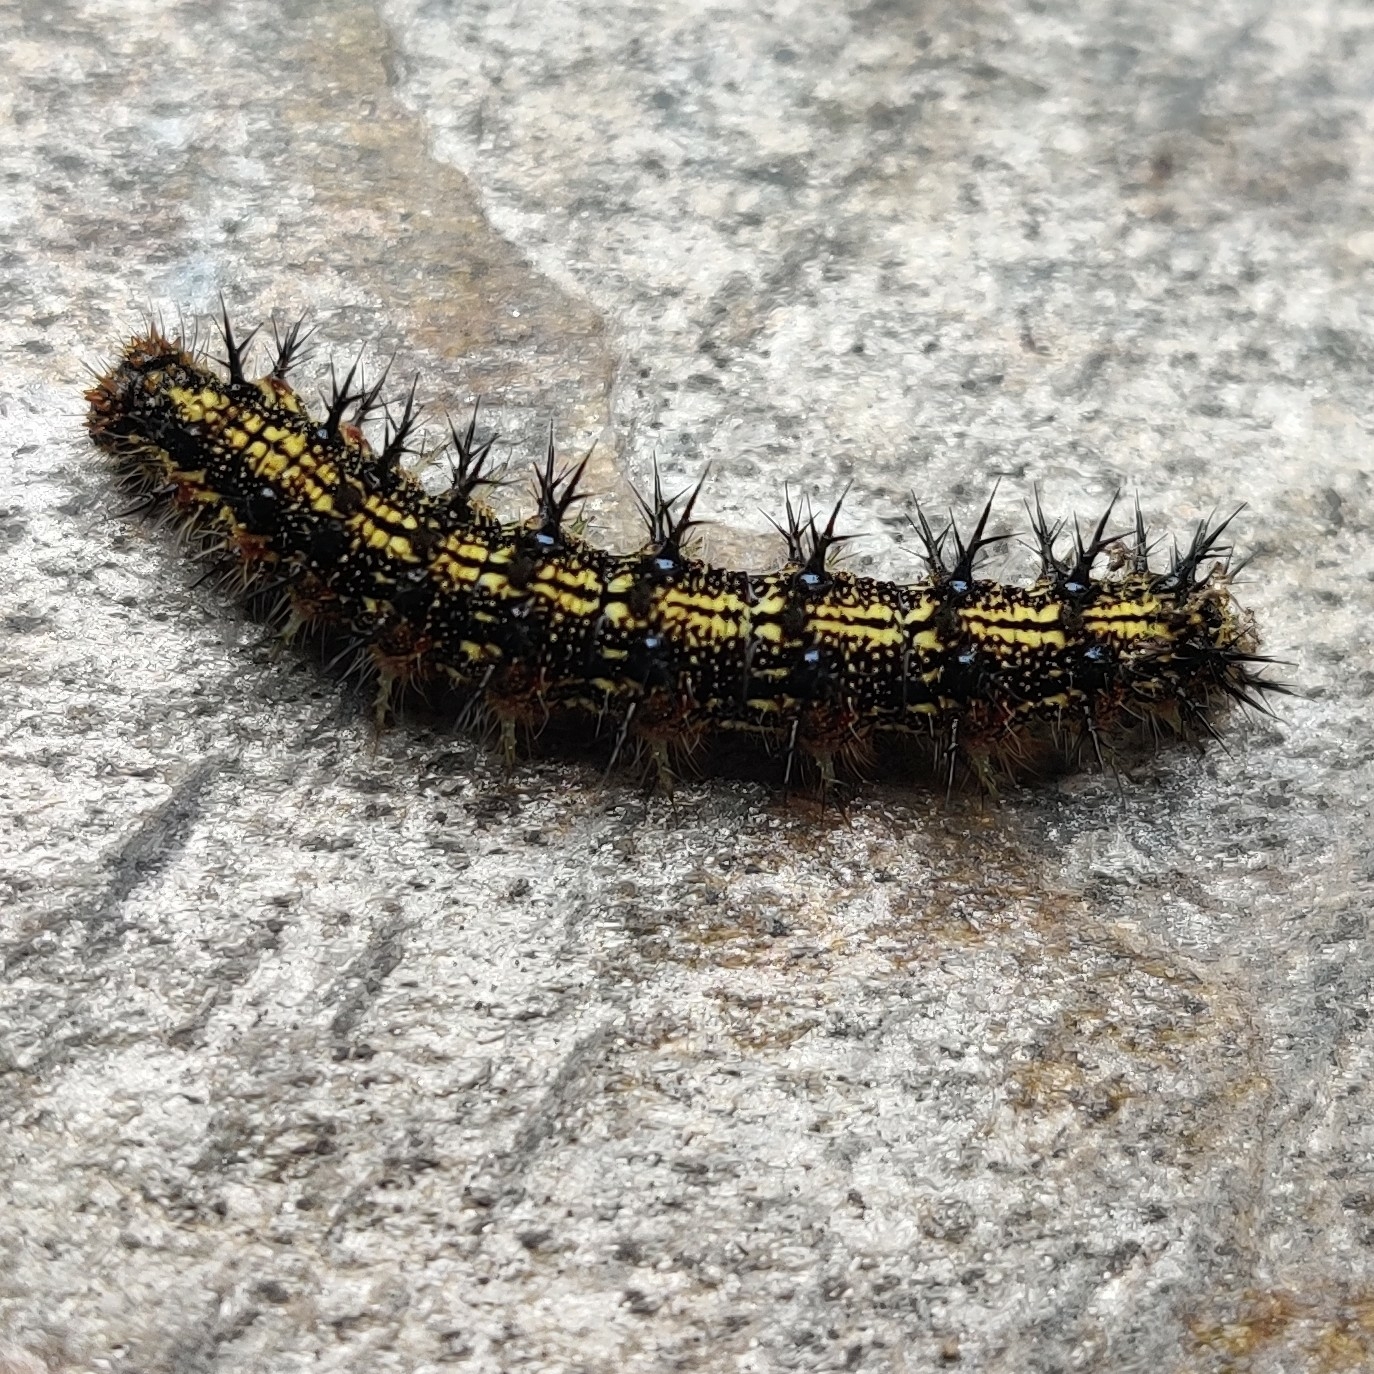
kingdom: Animalia
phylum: Arthropoda
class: Insecta
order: Lepidoptera
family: Nymphalidae
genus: Aglais
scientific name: Aglais caschmirensis
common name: Indian tortoiseshell
